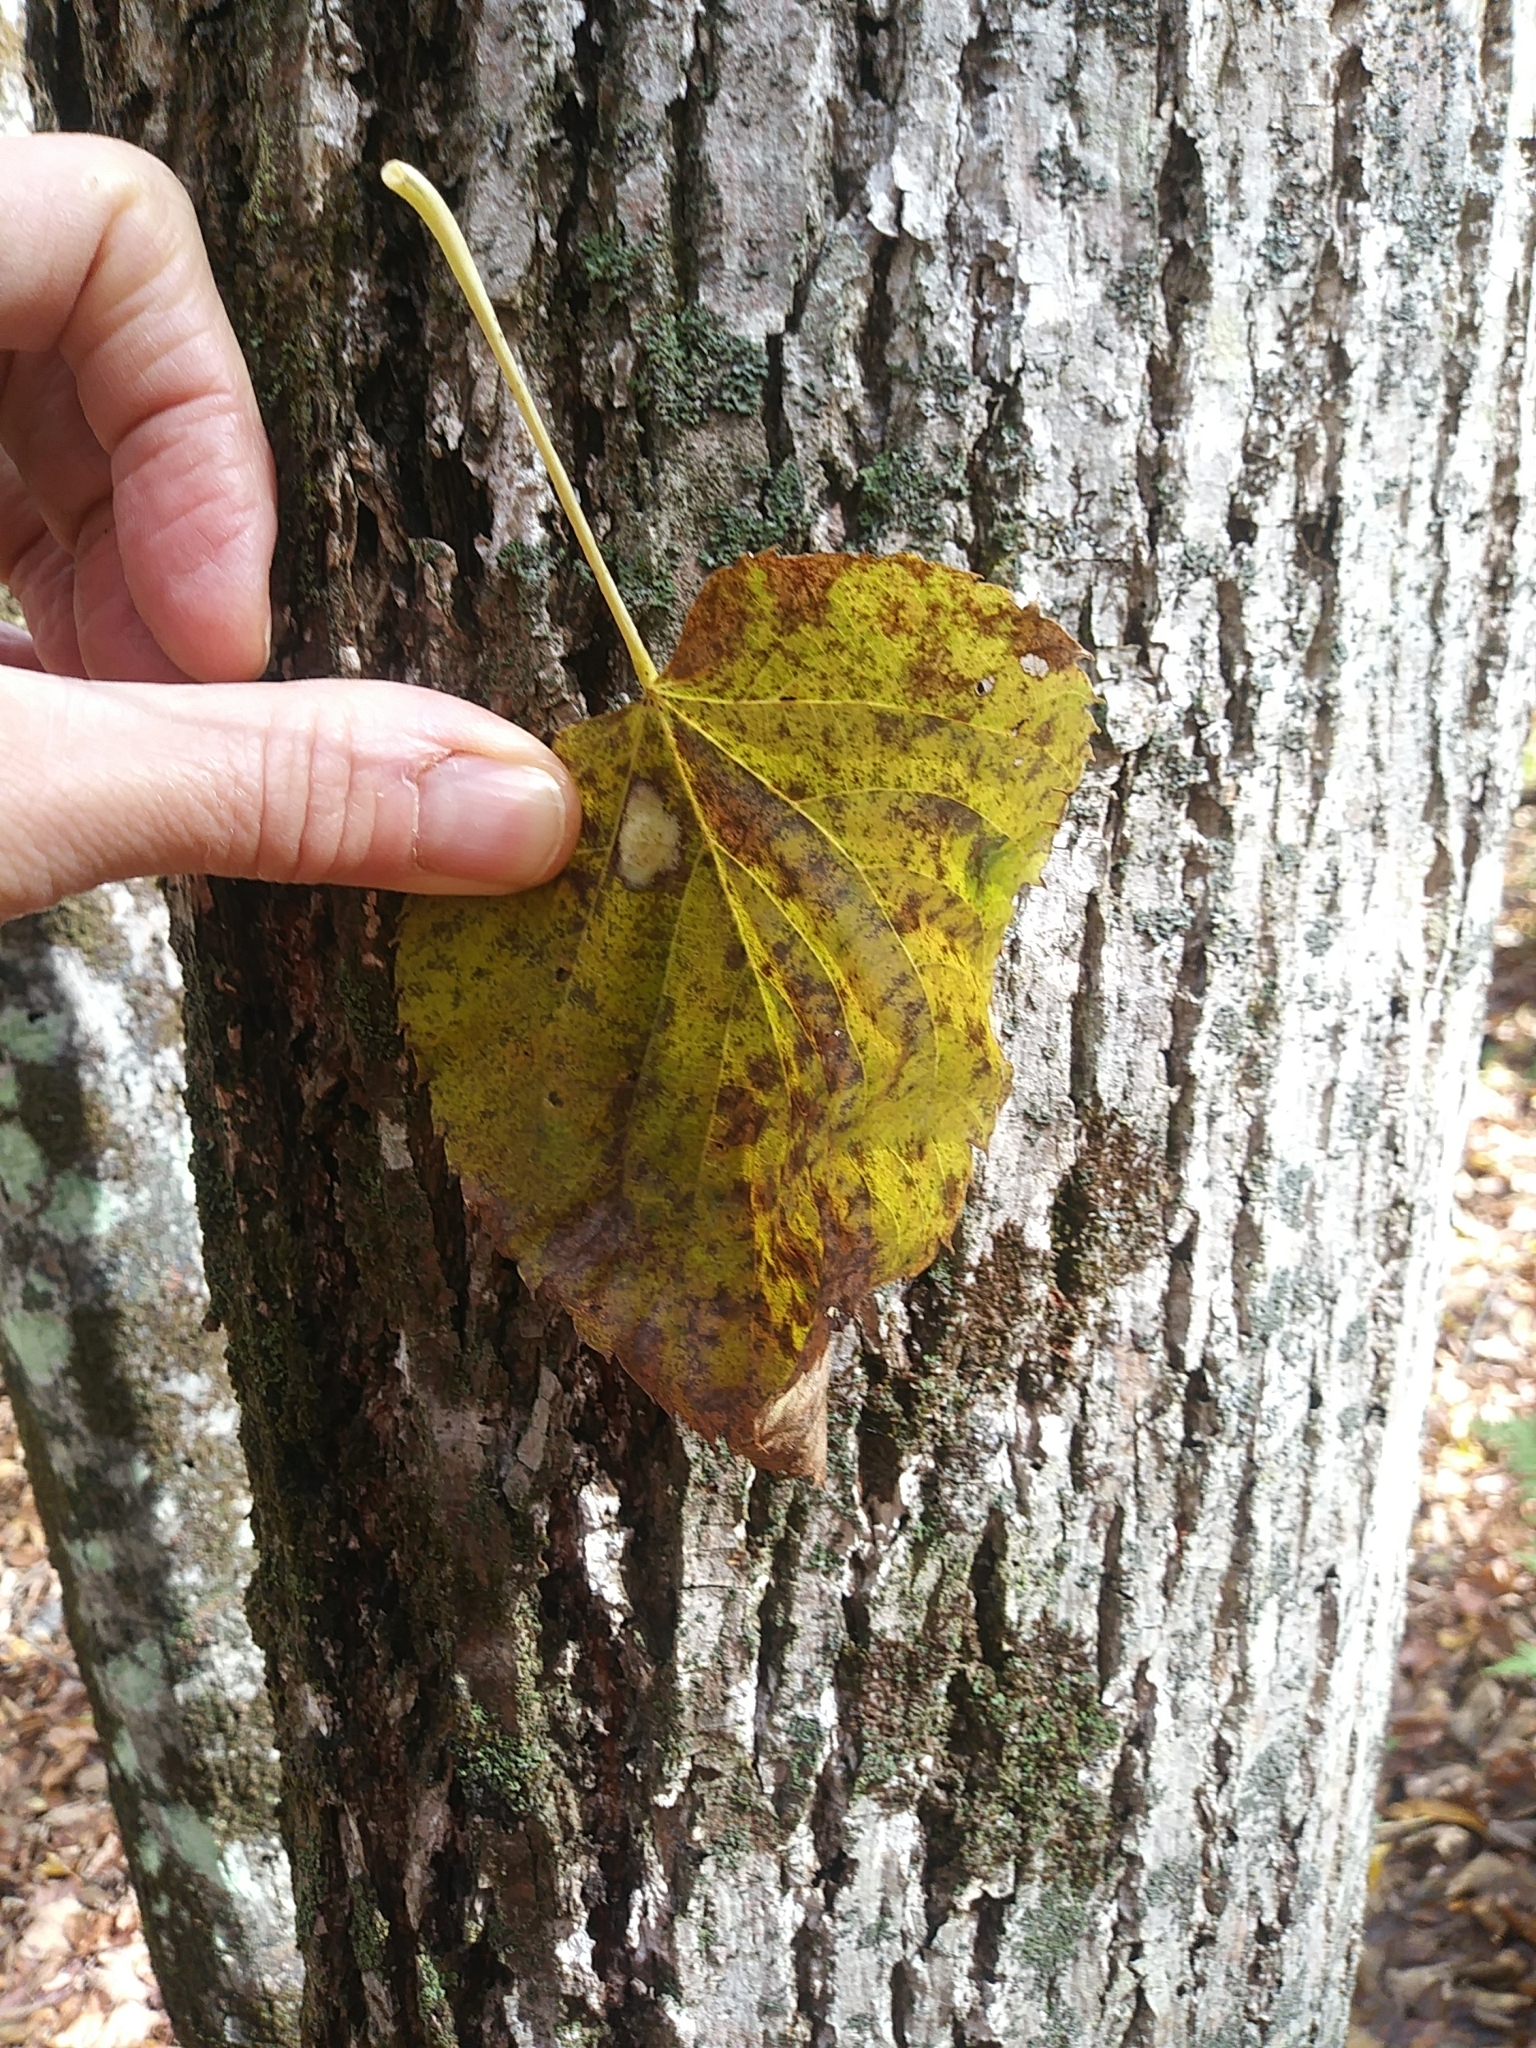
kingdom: Plantae
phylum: Tracheophyta
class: Magnoliopsida
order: Malvales
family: Malvaceae
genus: Tilia
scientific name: Tilia americana
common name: Basswood
